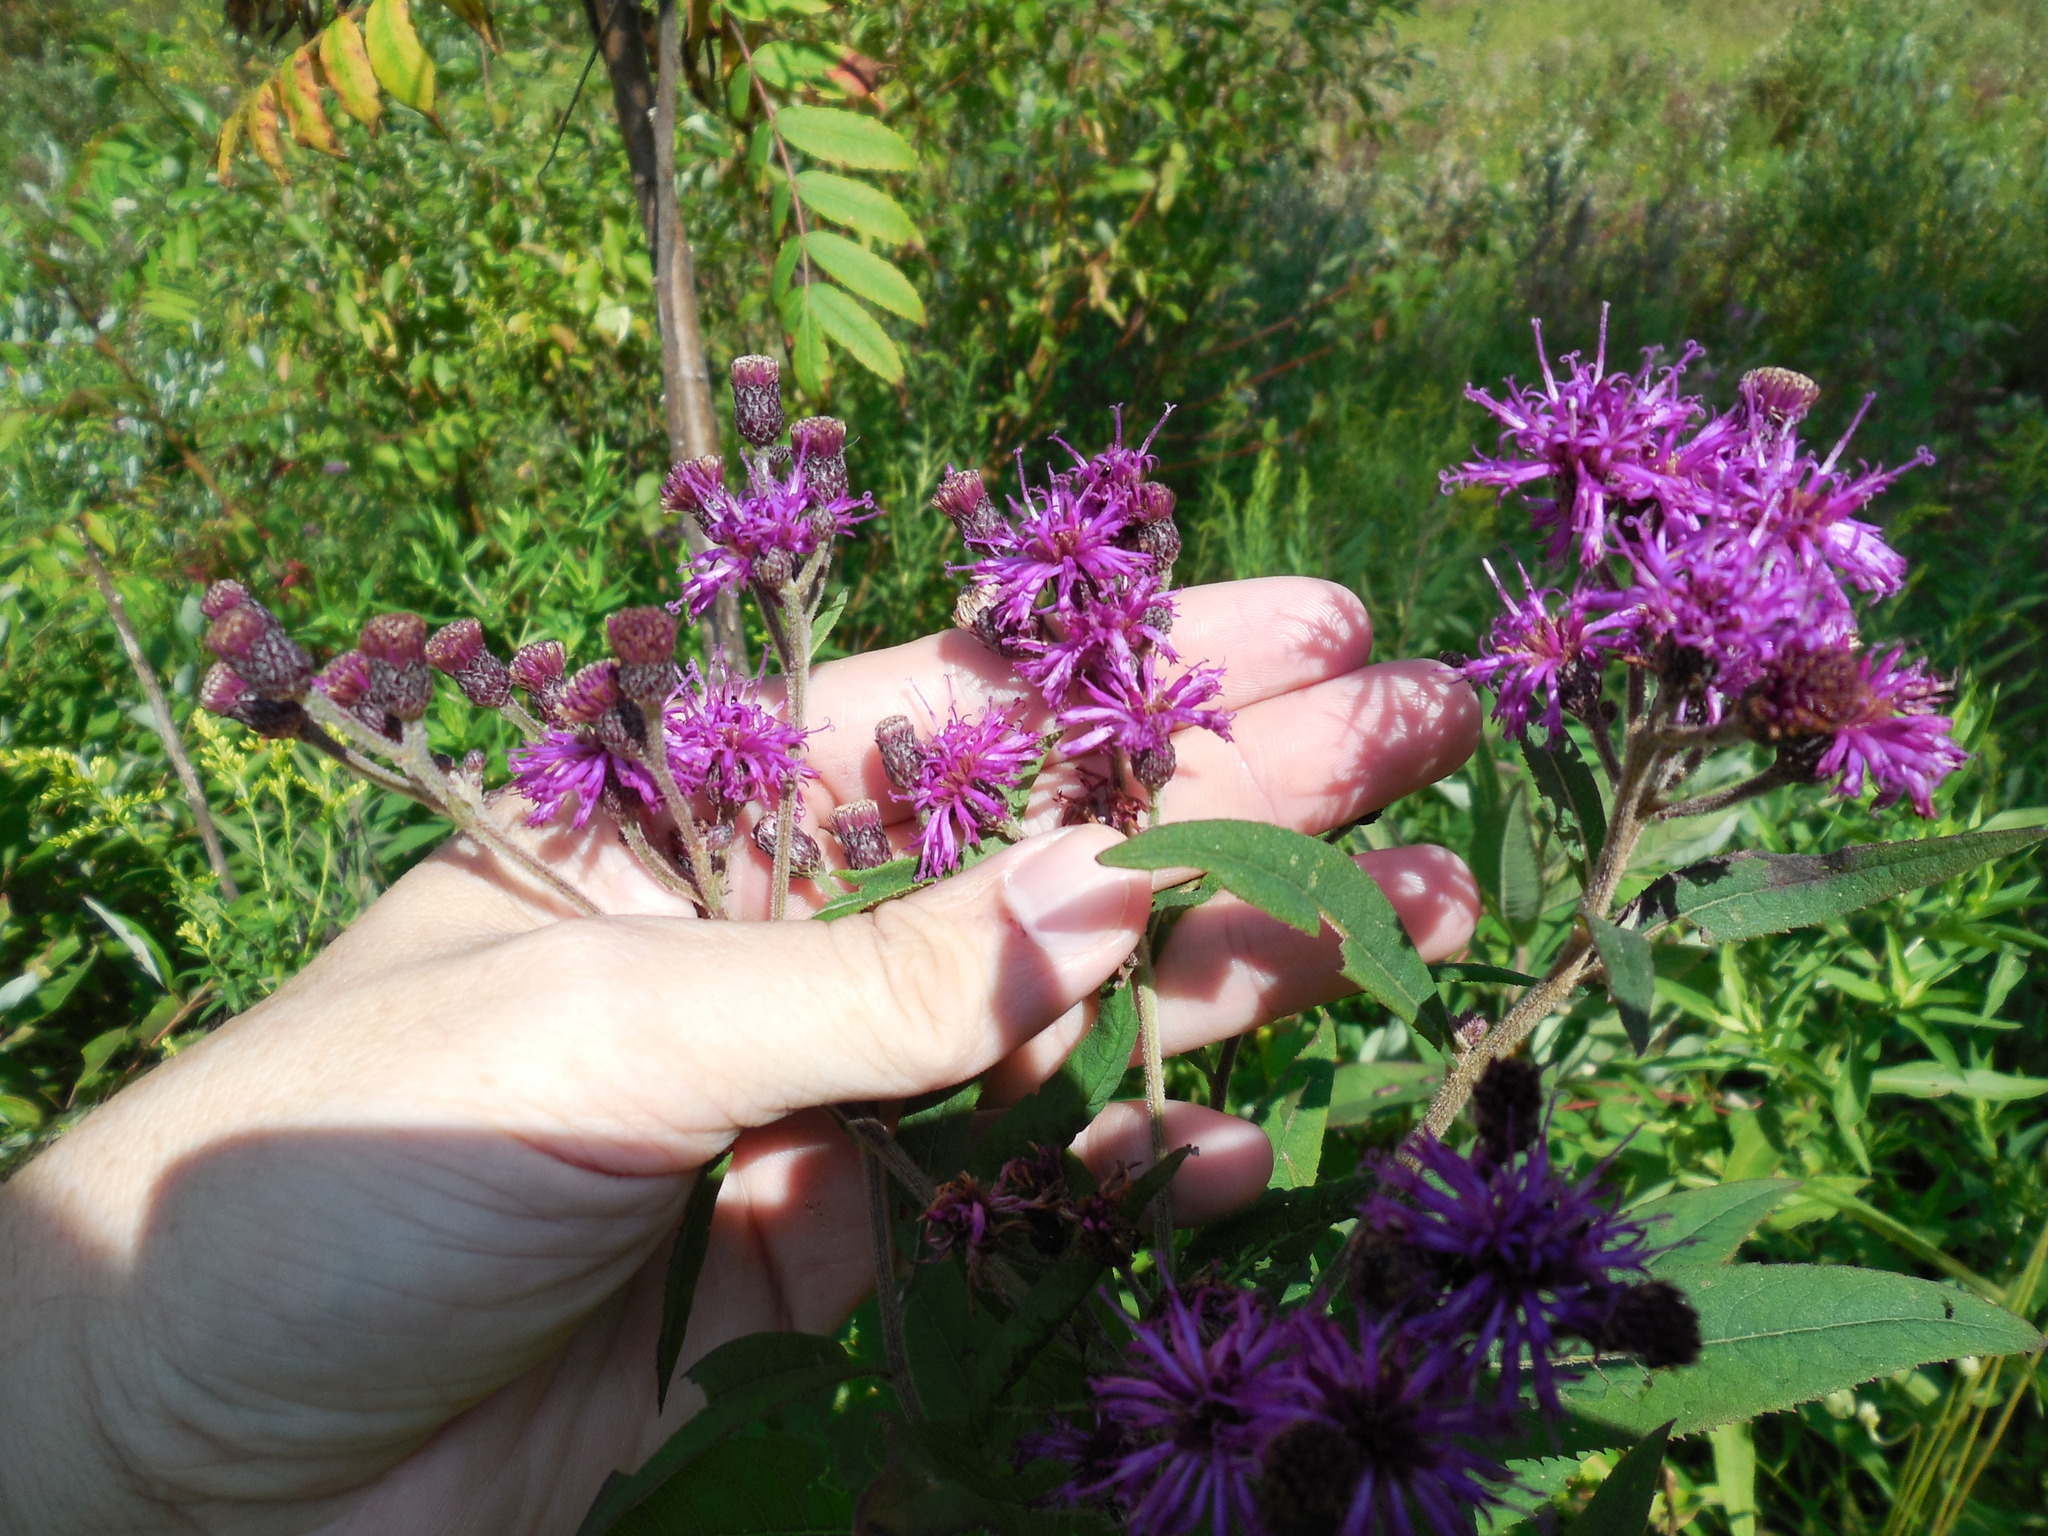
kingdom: Plantae
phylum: Tracheophyta
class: Magnoliopsida
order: Asterales
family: Asteraceae
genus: Vernonia
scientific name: Vernonia missurica
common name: Missouri ironweed
